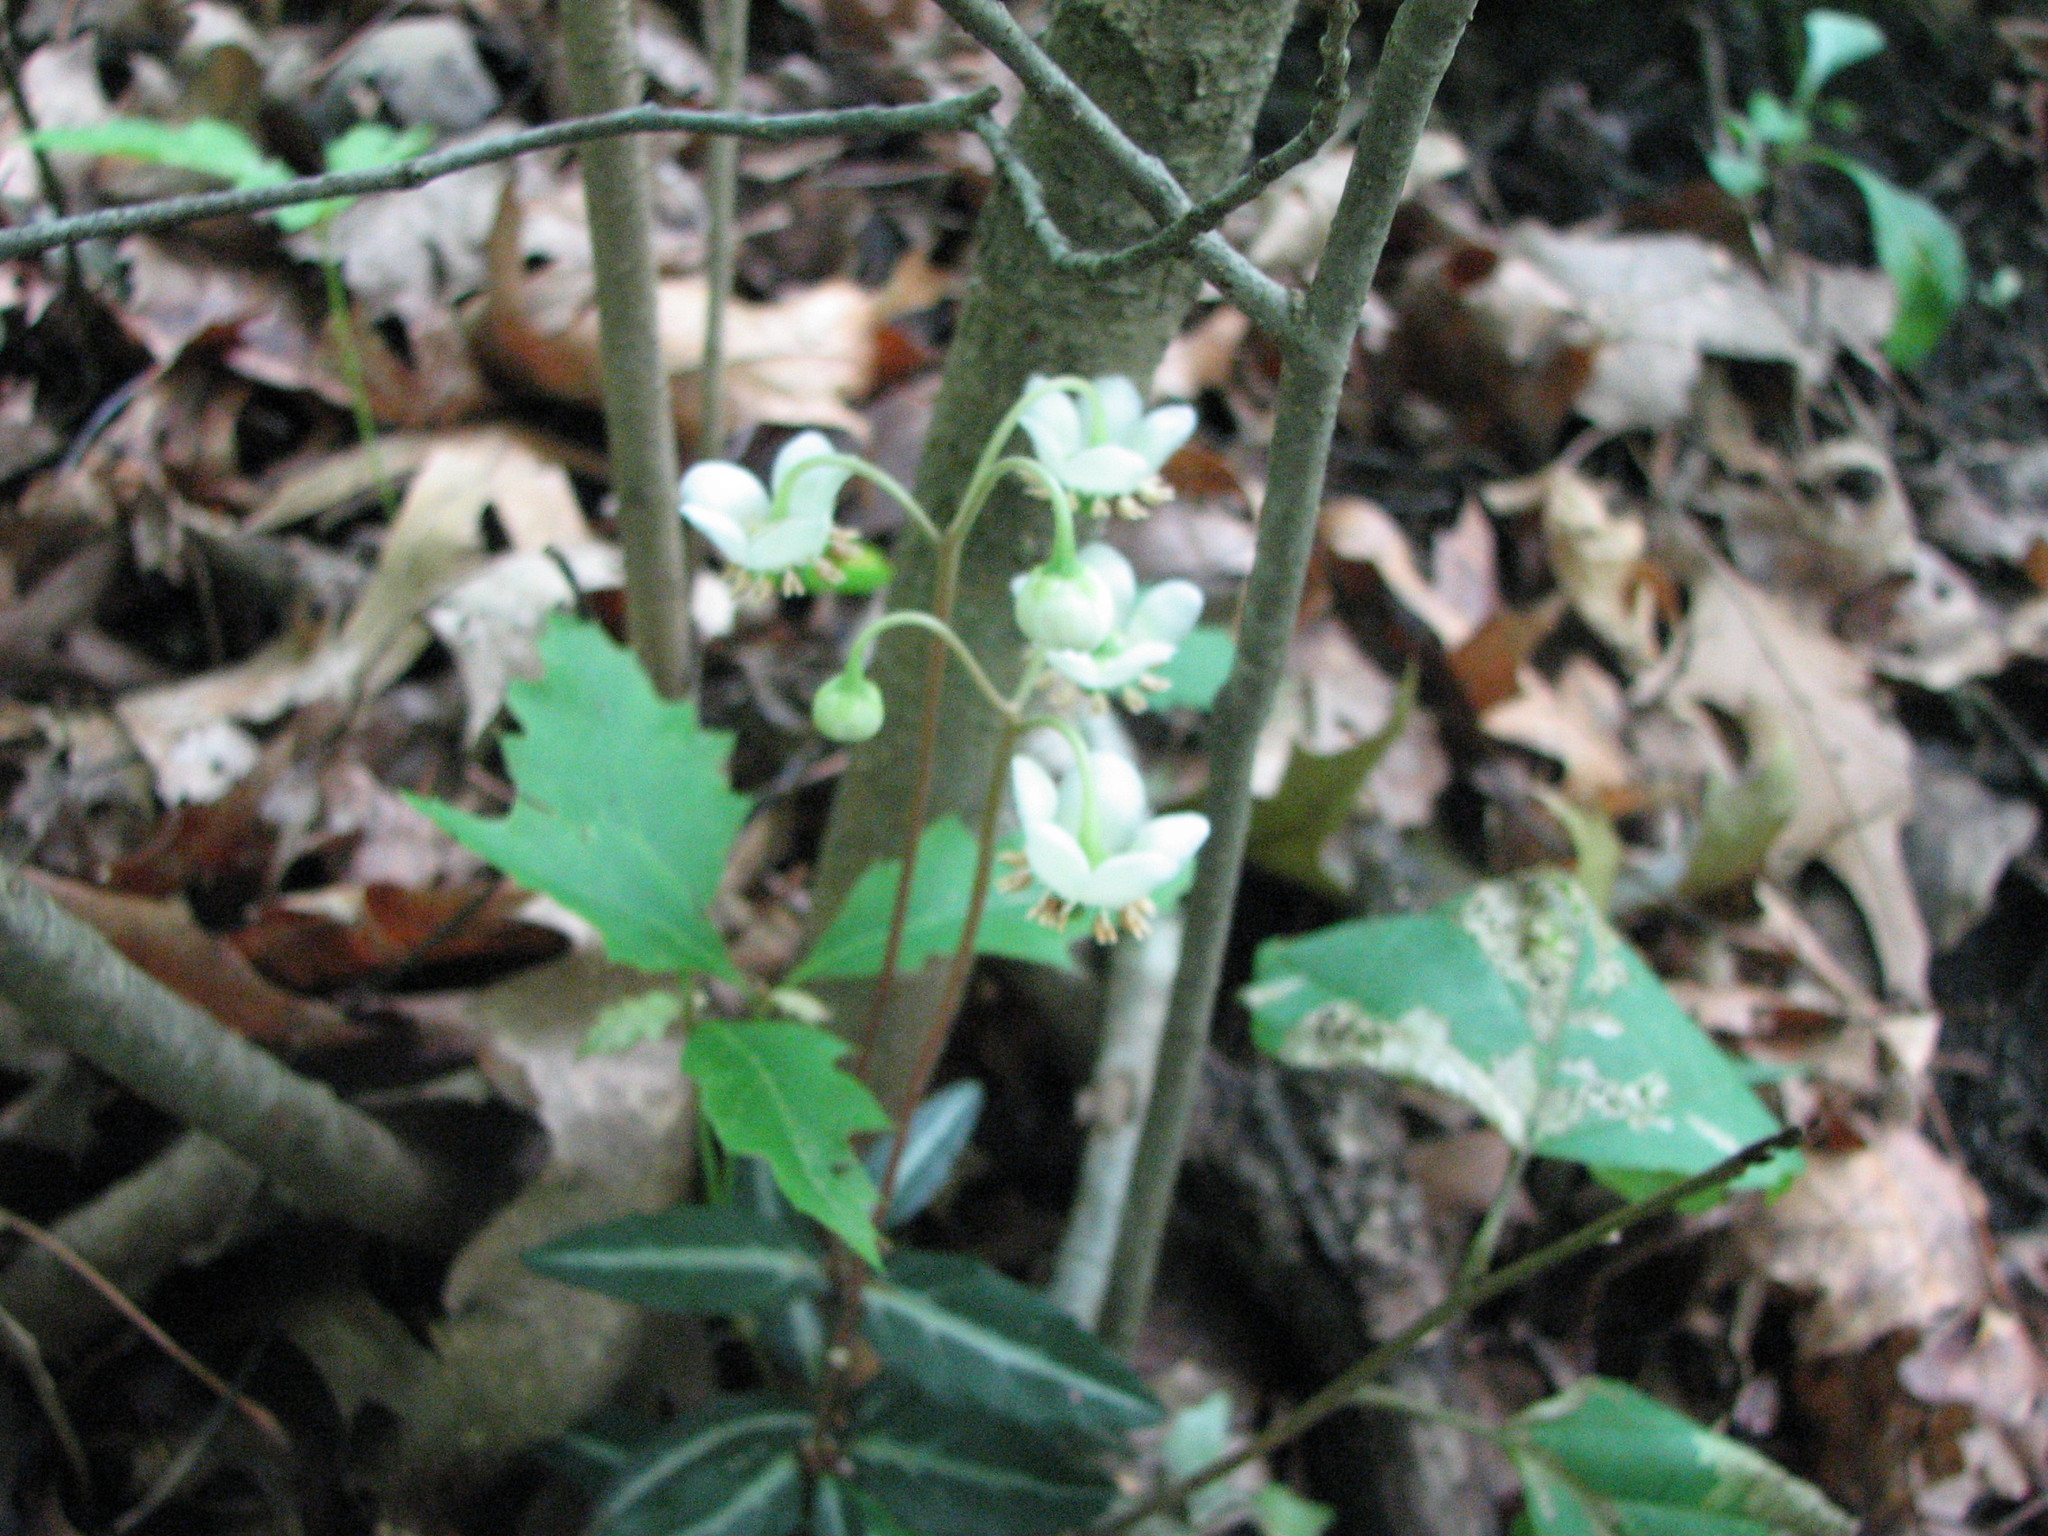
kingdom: Plantae
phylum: Tracheophyta
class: Magnoliopsida
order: Ericales
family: Ericaceae
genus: Chimaphila
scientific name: Chimaphila maculata
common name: Spotted pipsissewa
